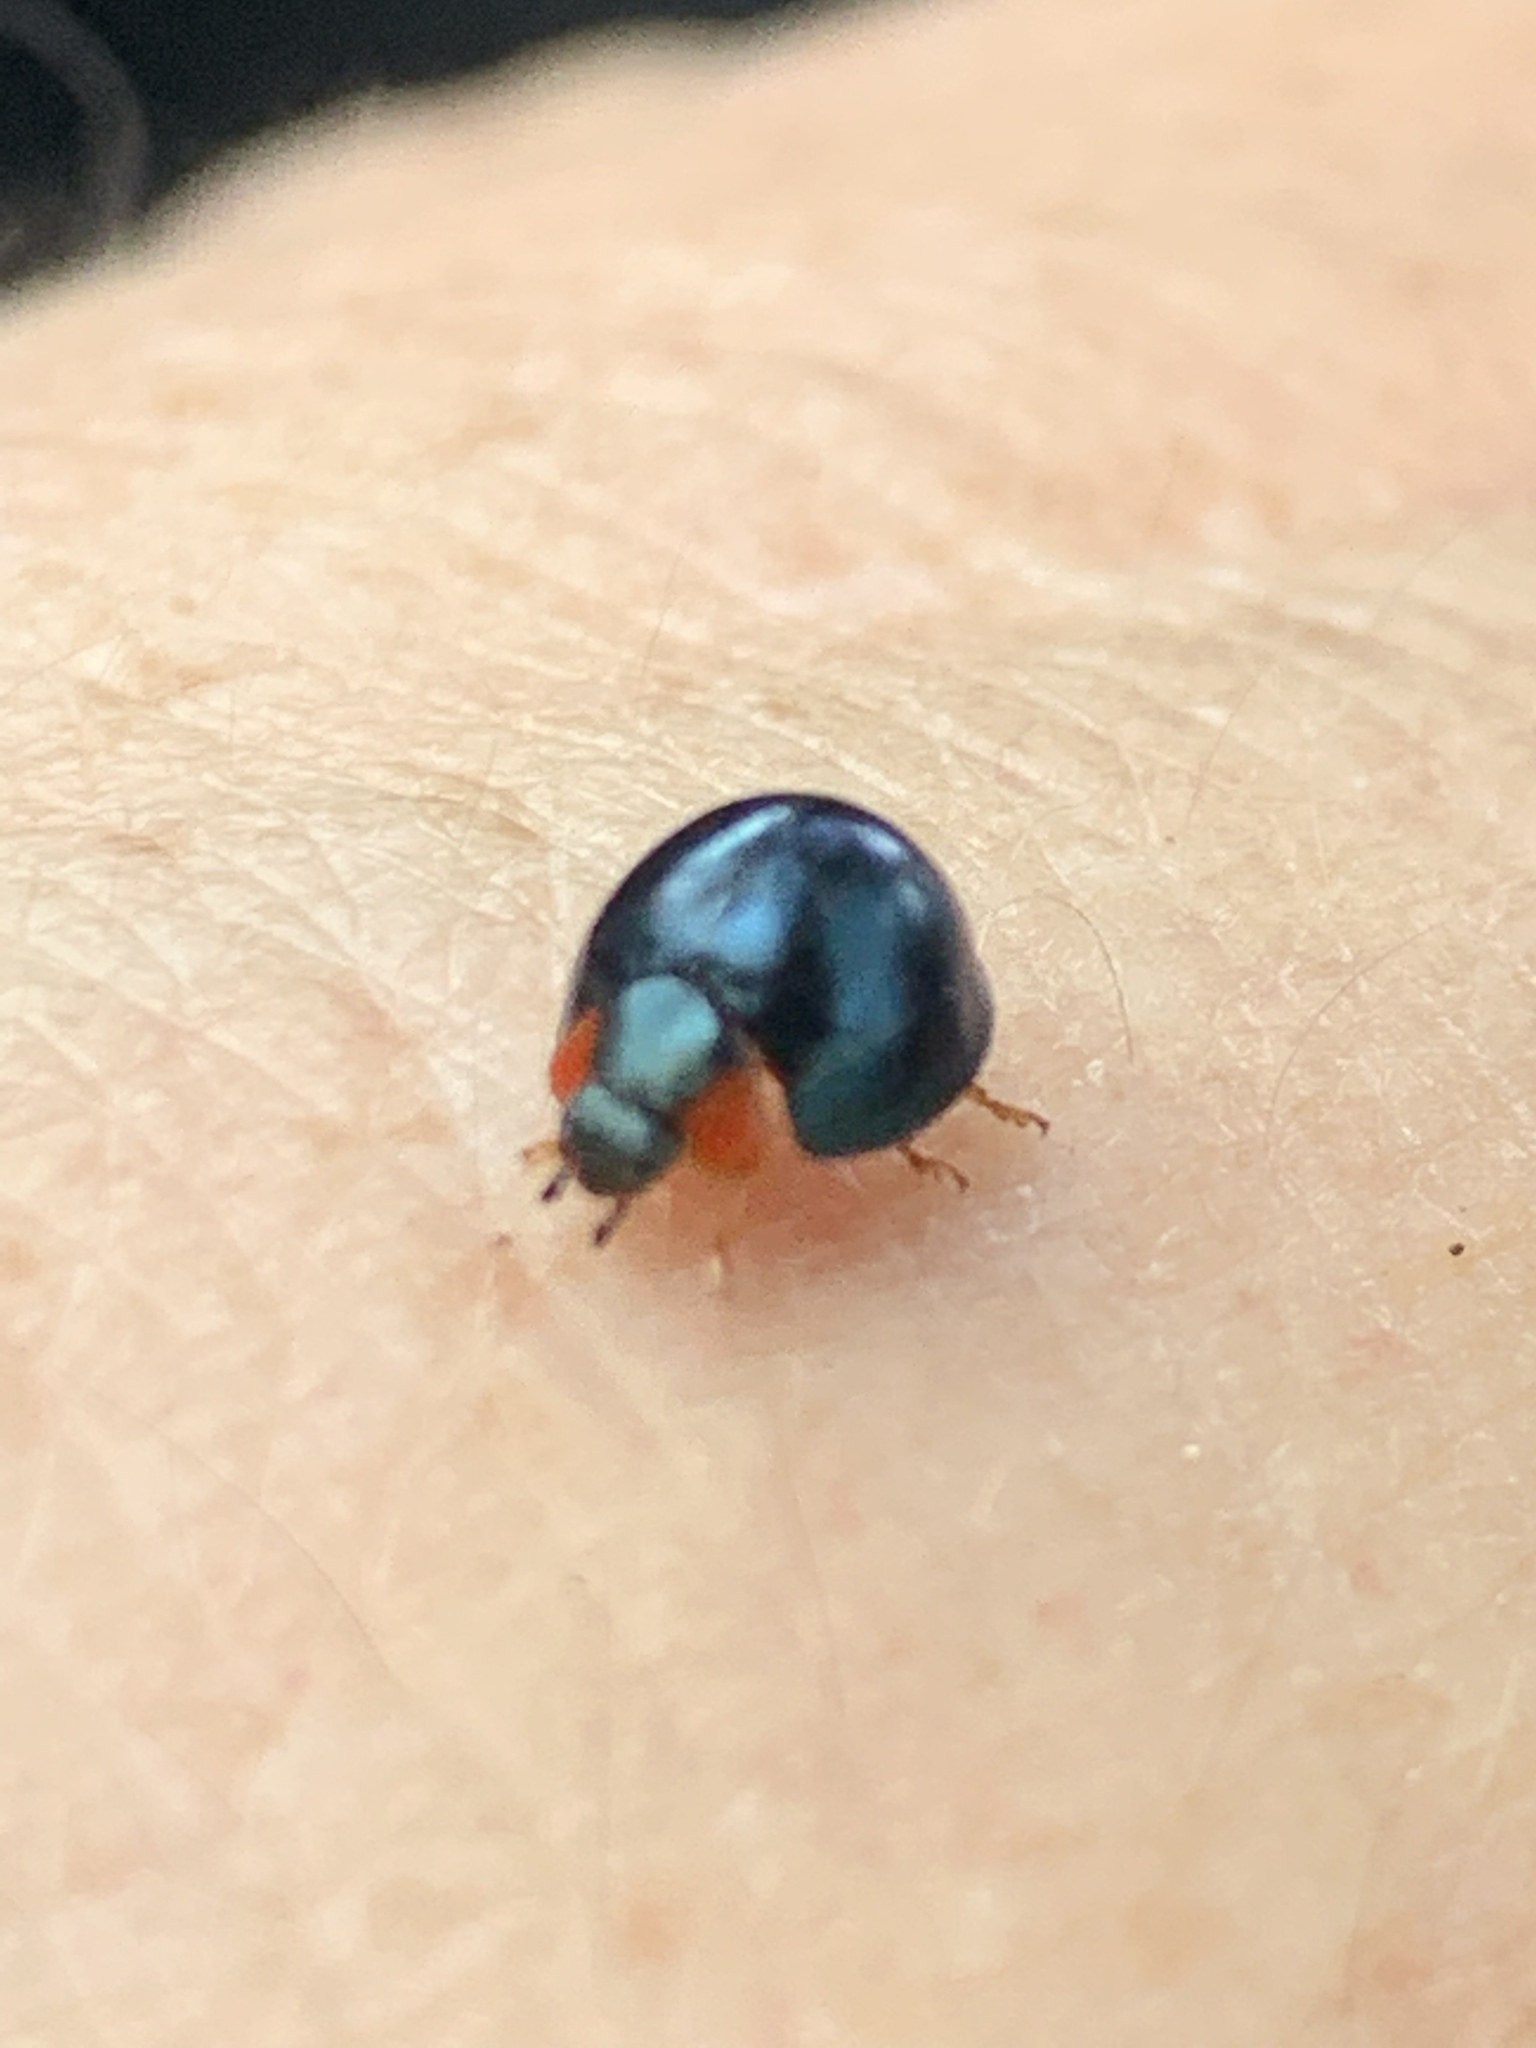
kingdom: Animalia
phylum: Arthropoda
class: Insecta
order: Coleoptera
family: Coccinellidae
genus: Curinus
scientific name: Curinus coeruleus
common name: Ladybird beetle
